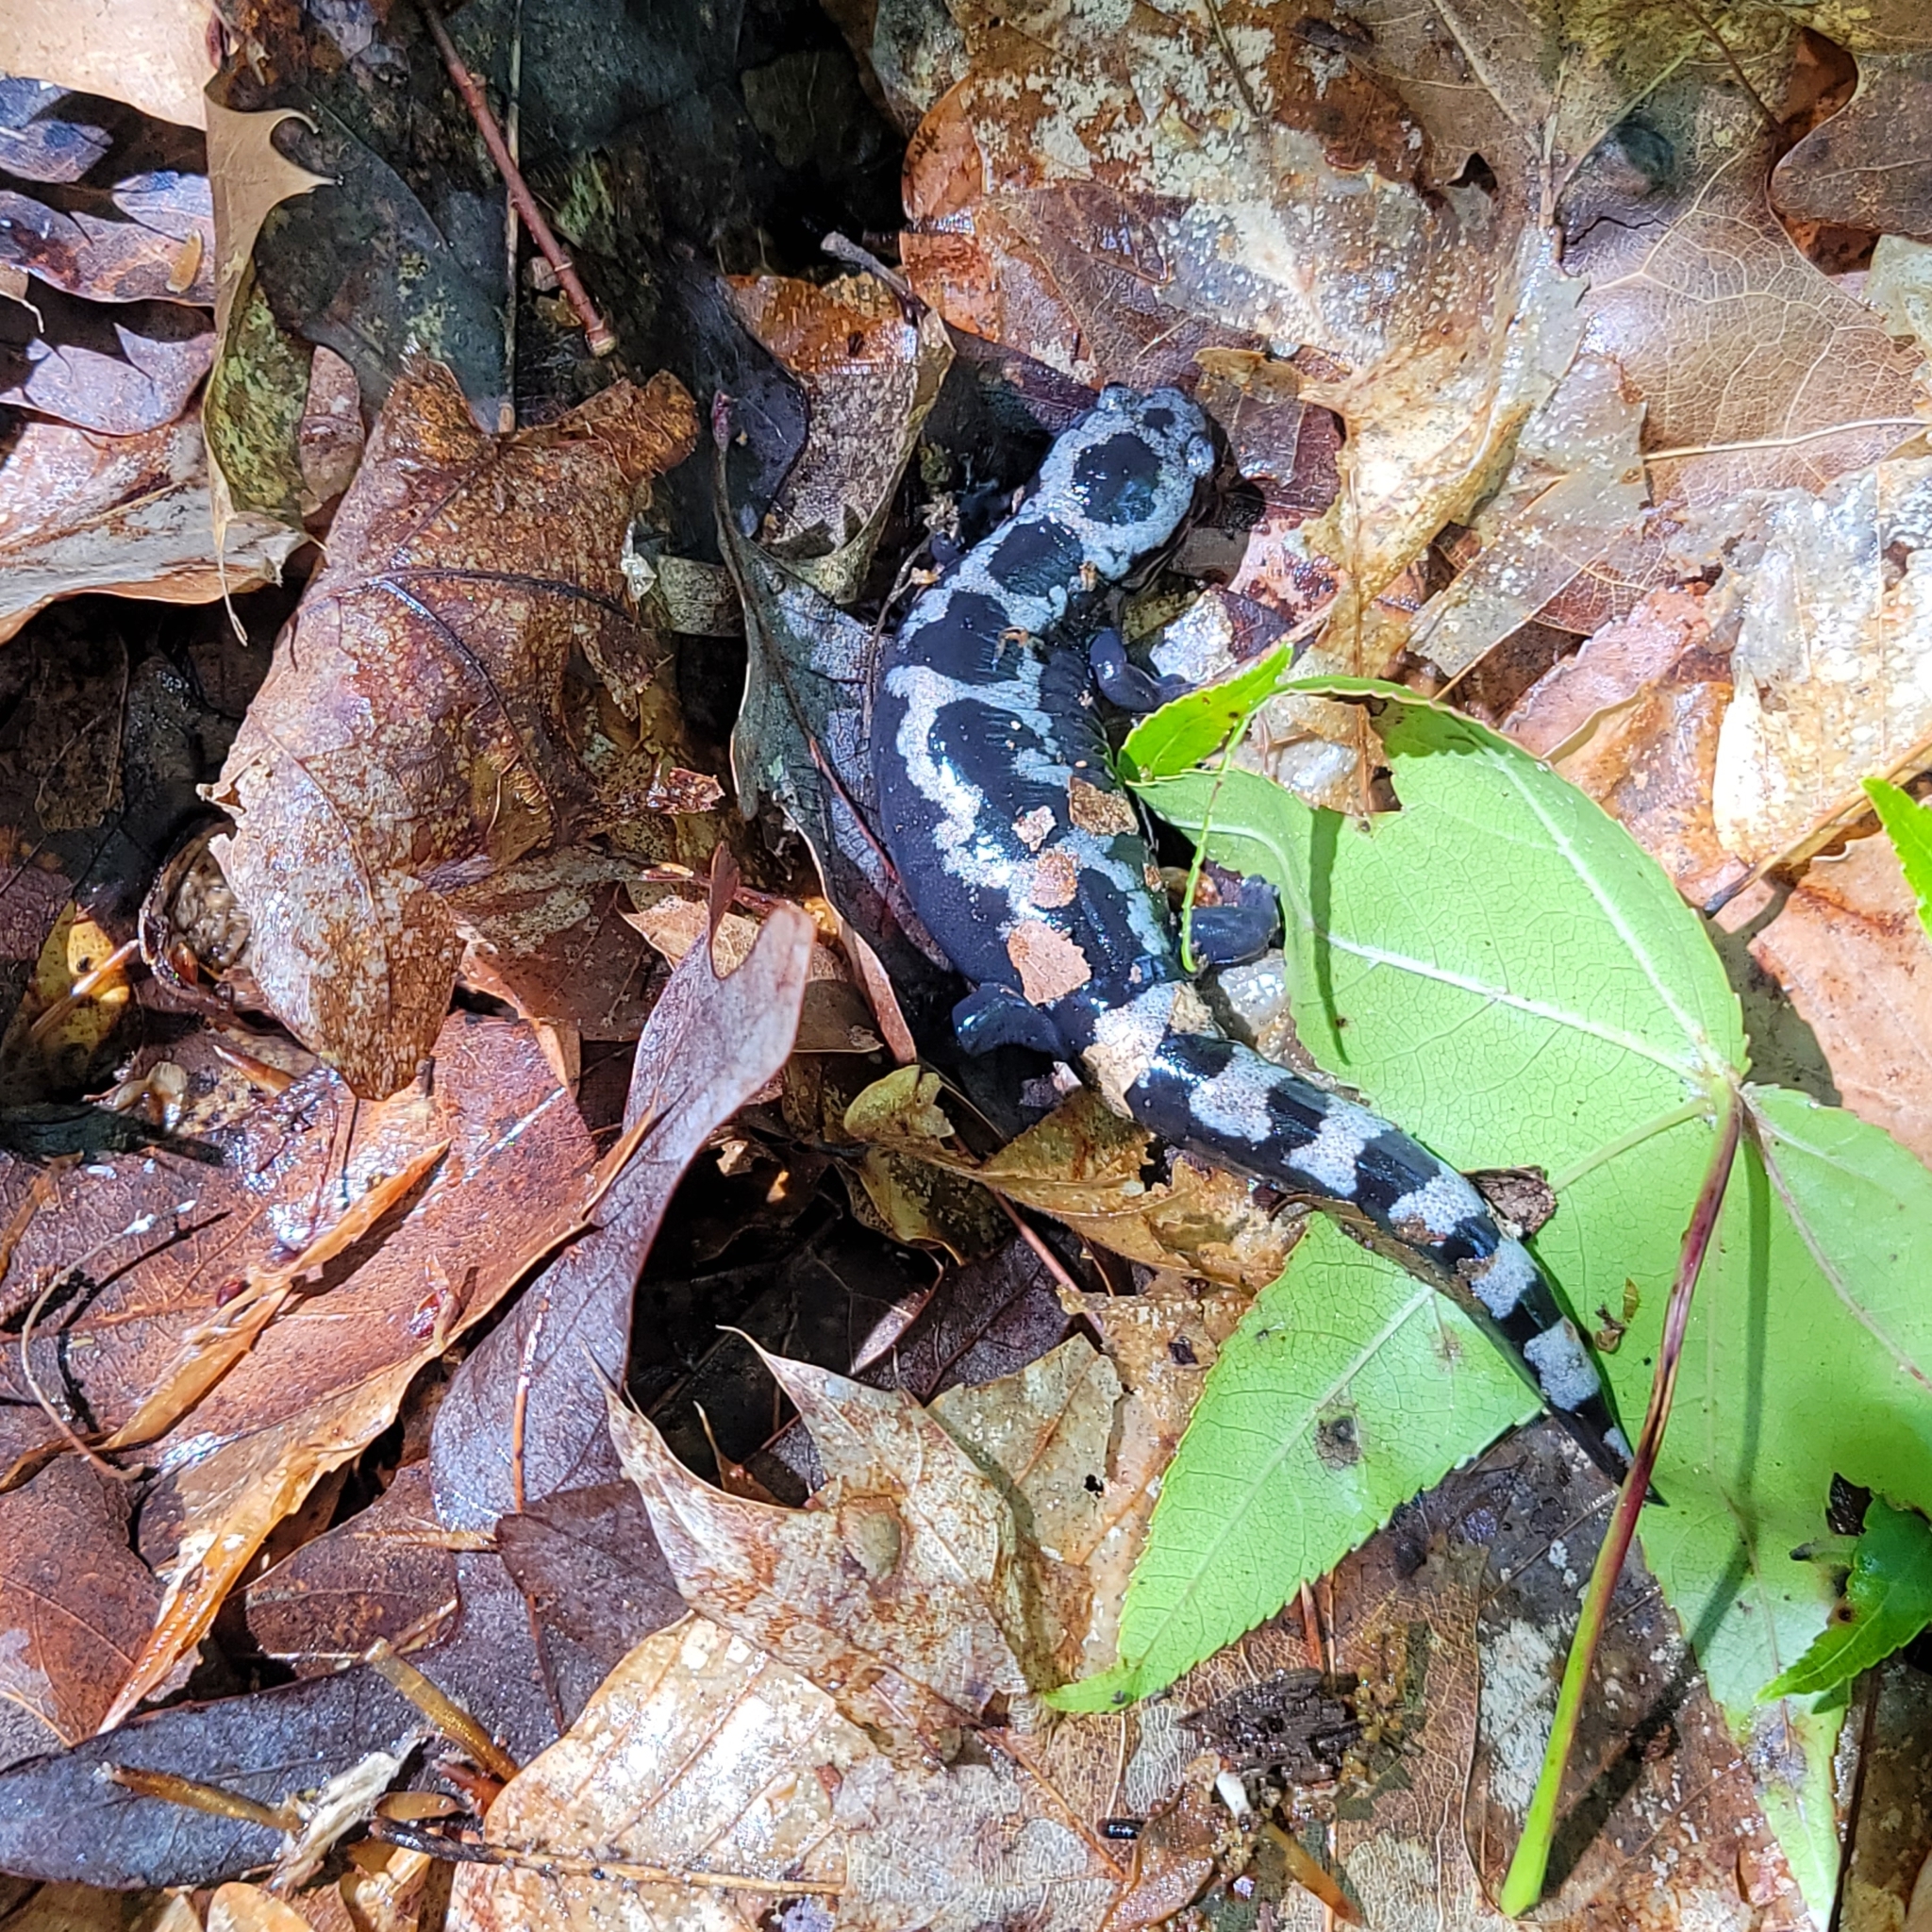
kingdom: Animalia
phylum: Chordata
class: Amphibia
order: Caudata
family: Ambystomatidae
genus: Ambystoma
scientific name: Ambystoma opacum
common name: Marbled salamander
